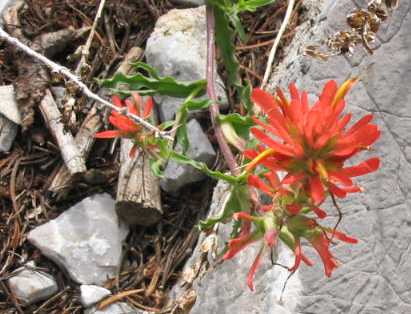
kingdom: Plantae
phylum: Tracheophyta
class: Magnoliopsida
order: Lamiales
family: Orobanchaceae
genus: Castilleja
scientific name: Castilleja martini
